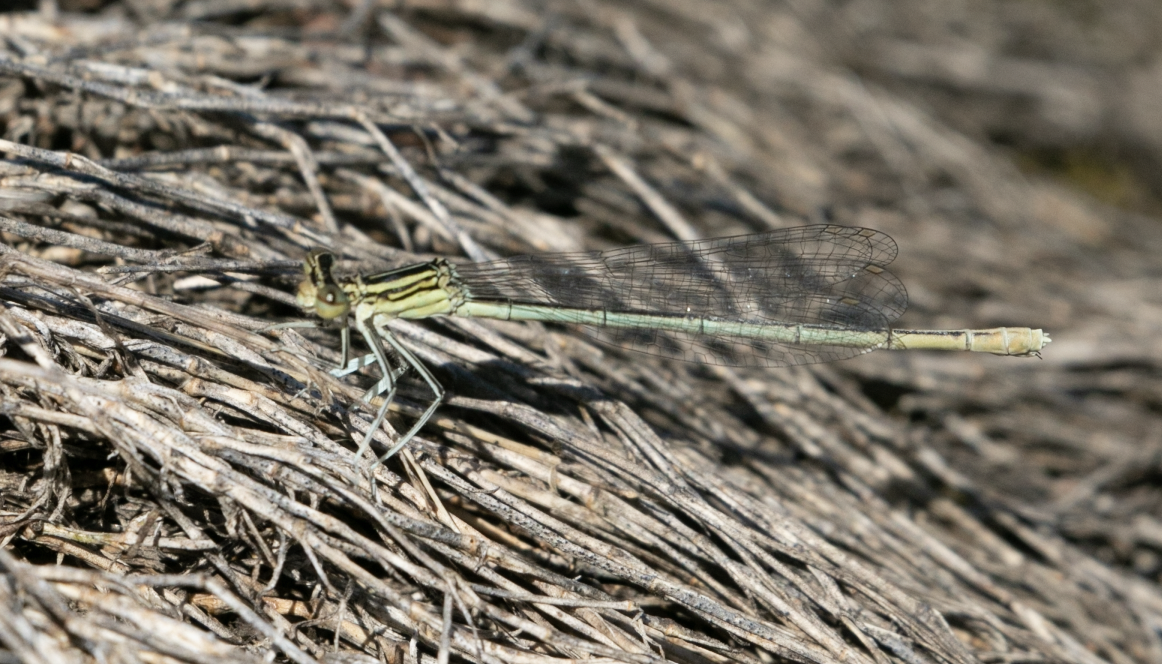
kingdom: Animalia
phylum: Arthropoda
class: Insecta
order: Odonata
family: Platycnemididae
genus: Platycnemis
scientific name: Platycnemis pennipes
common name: White-legged damselfly
